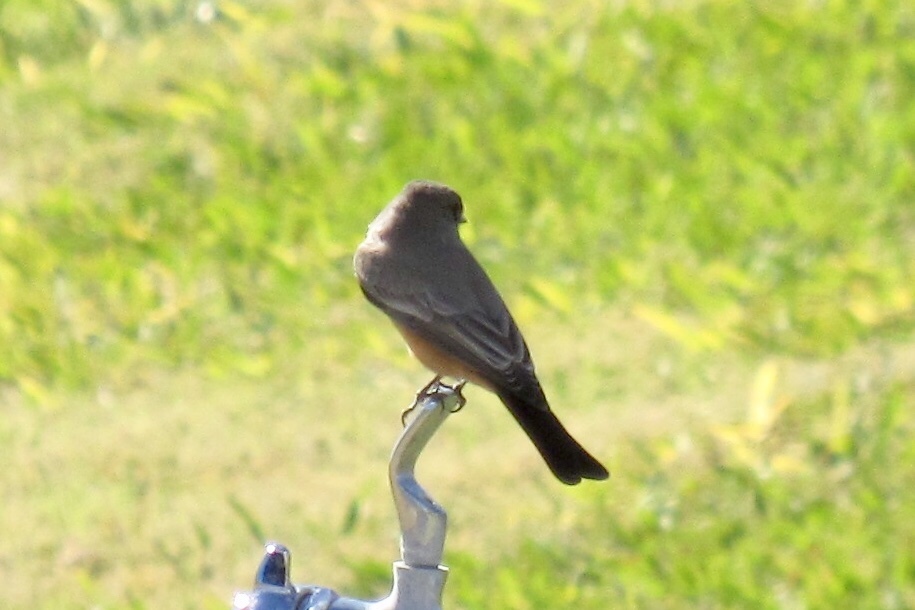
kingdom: Animalia
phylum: Chordata
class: Aves
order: Passeriformes
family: Tyrannidae
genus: Sayornis
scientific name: Sayornis saya
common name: Say's phoebe
